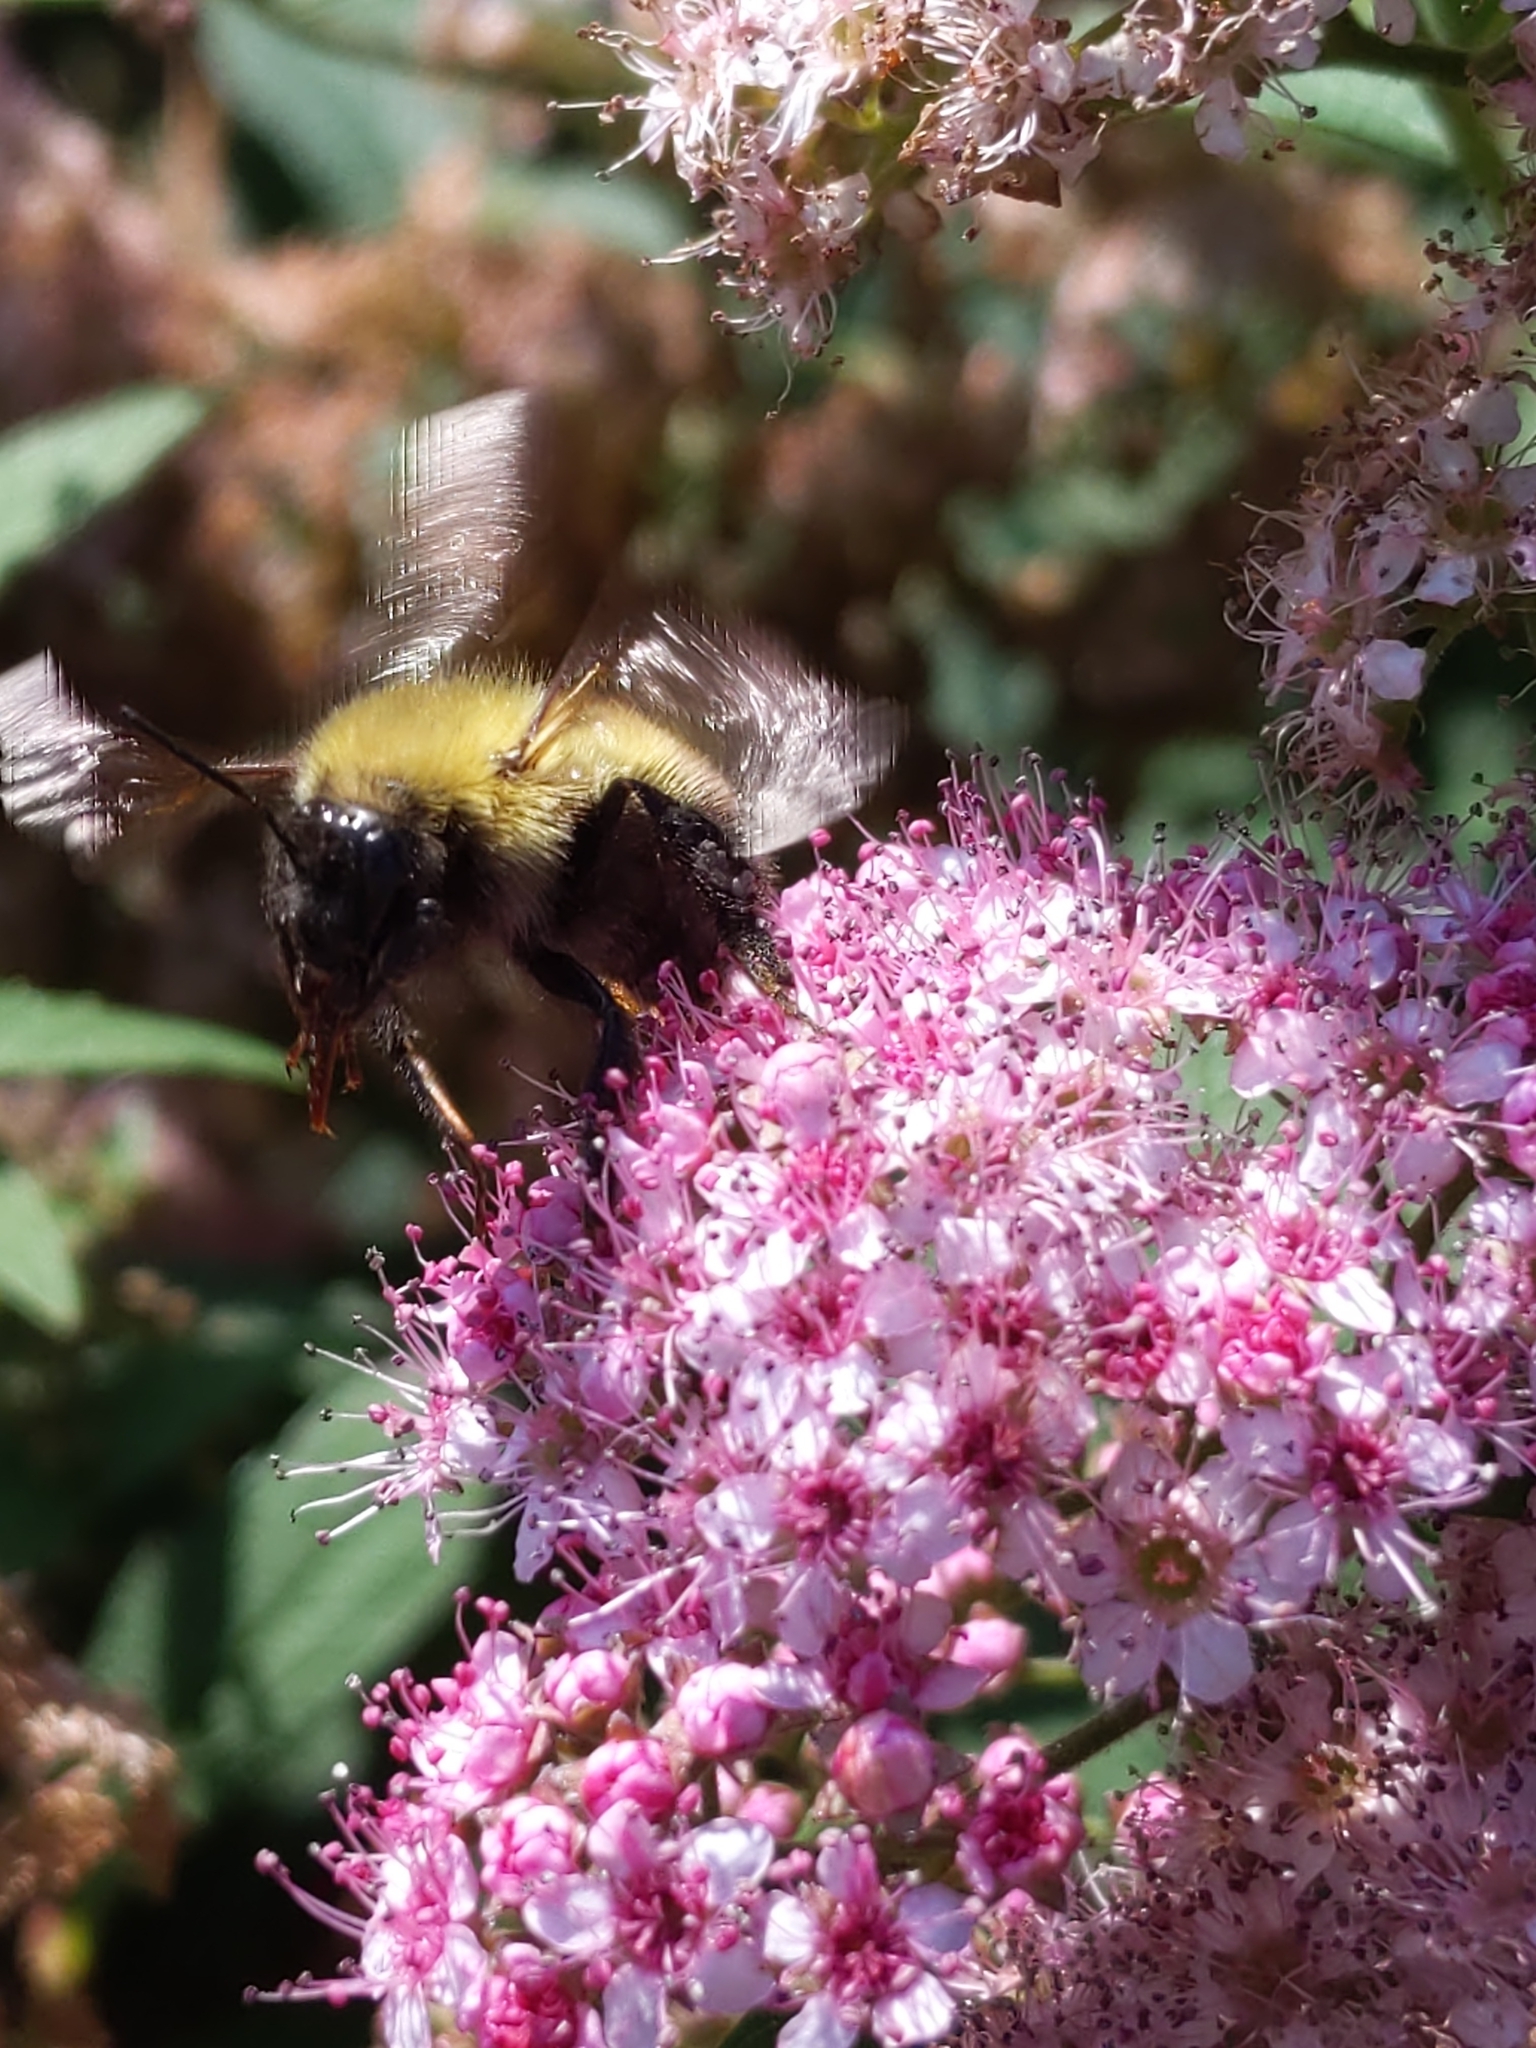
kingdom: Animalia
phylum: Arthropoda
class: Insecta
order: Hymenoptera
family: Apidae
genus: Bombus
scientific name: Bombus perplexus
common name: Confusing bumble bee
